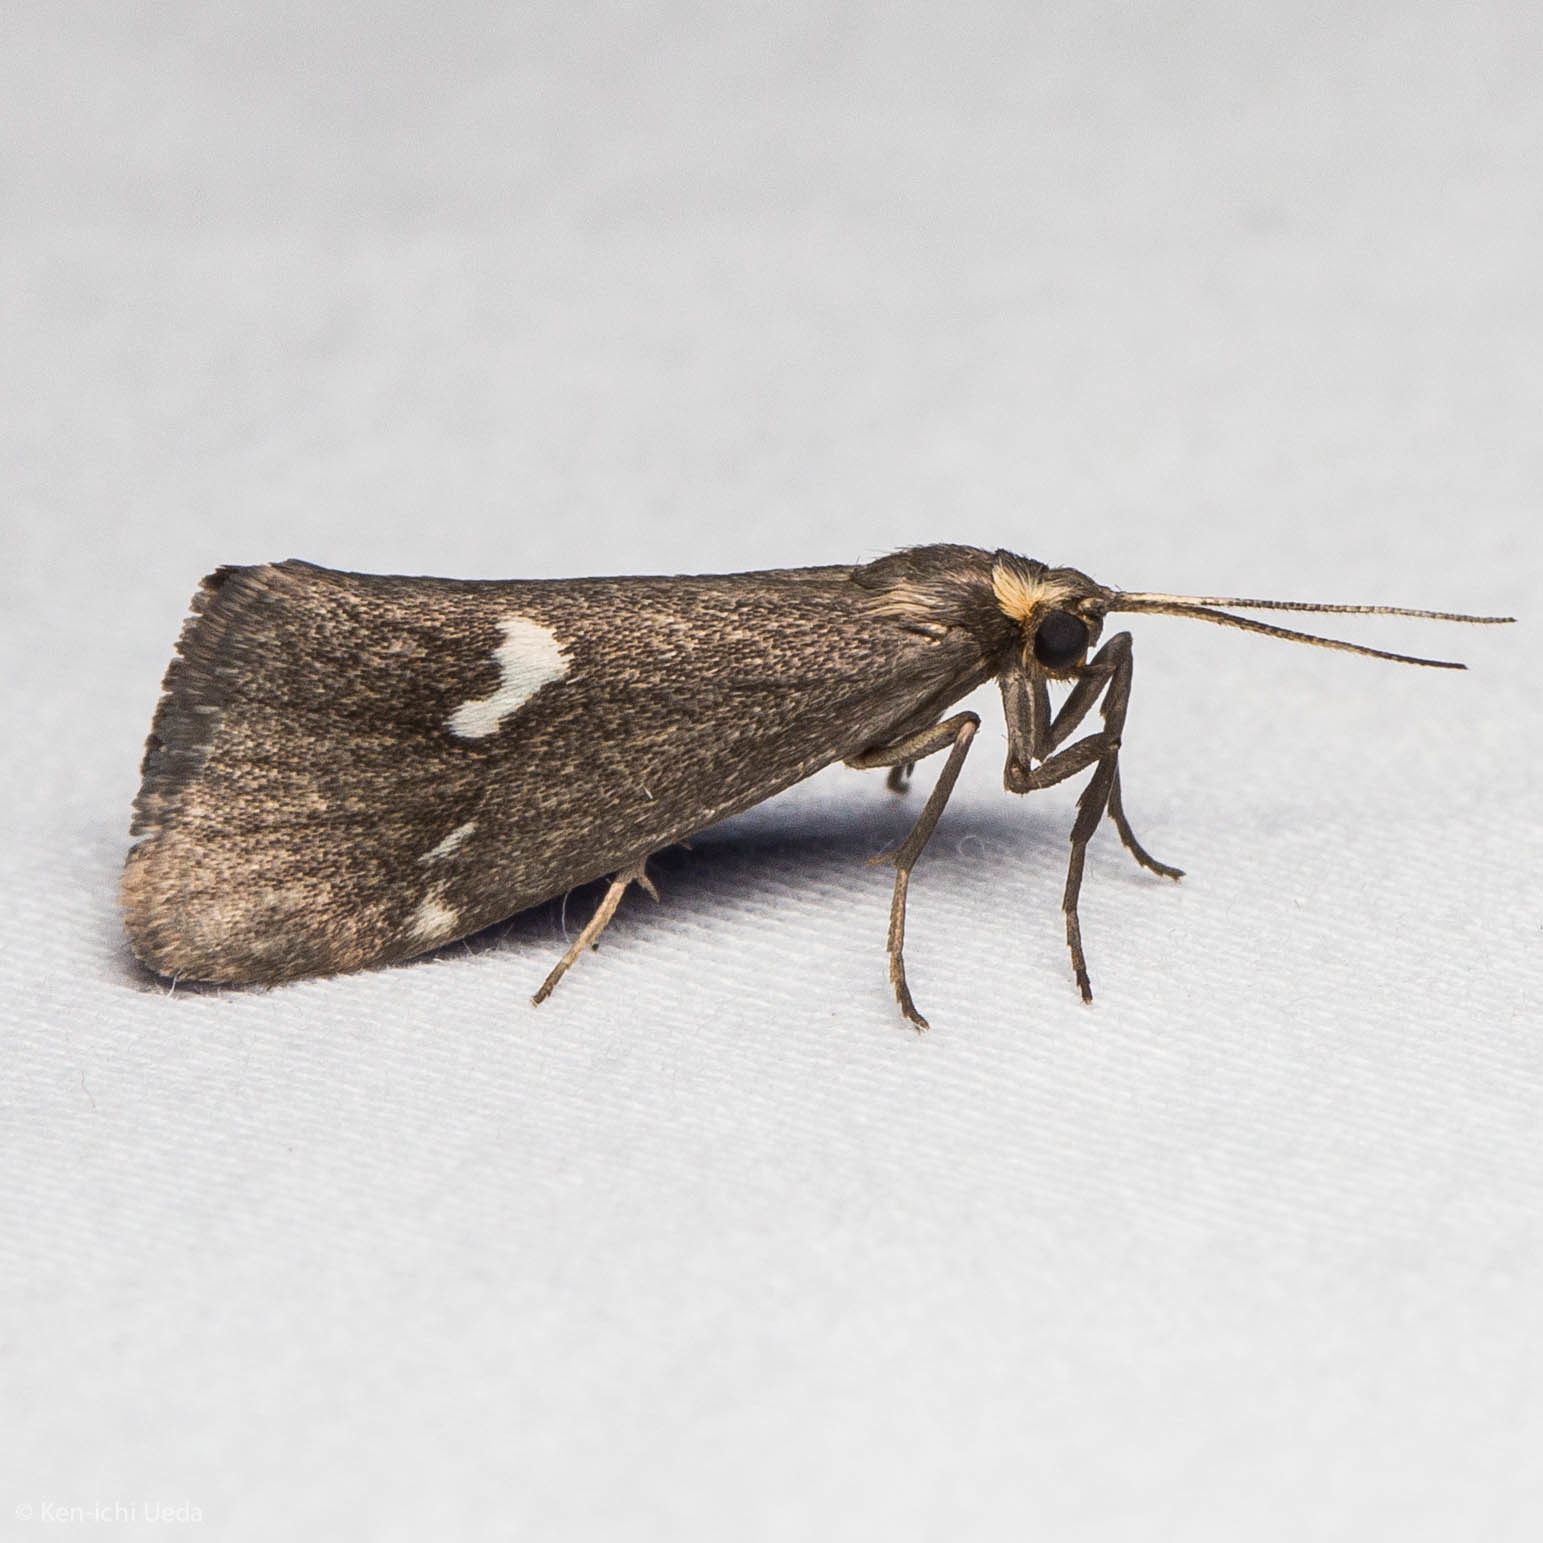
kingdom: Animalia
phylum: Arthropoda
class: Insecta
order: Lepidoptera
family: Erebidae
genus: Cisthene
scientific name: Cisthene liberomacula
